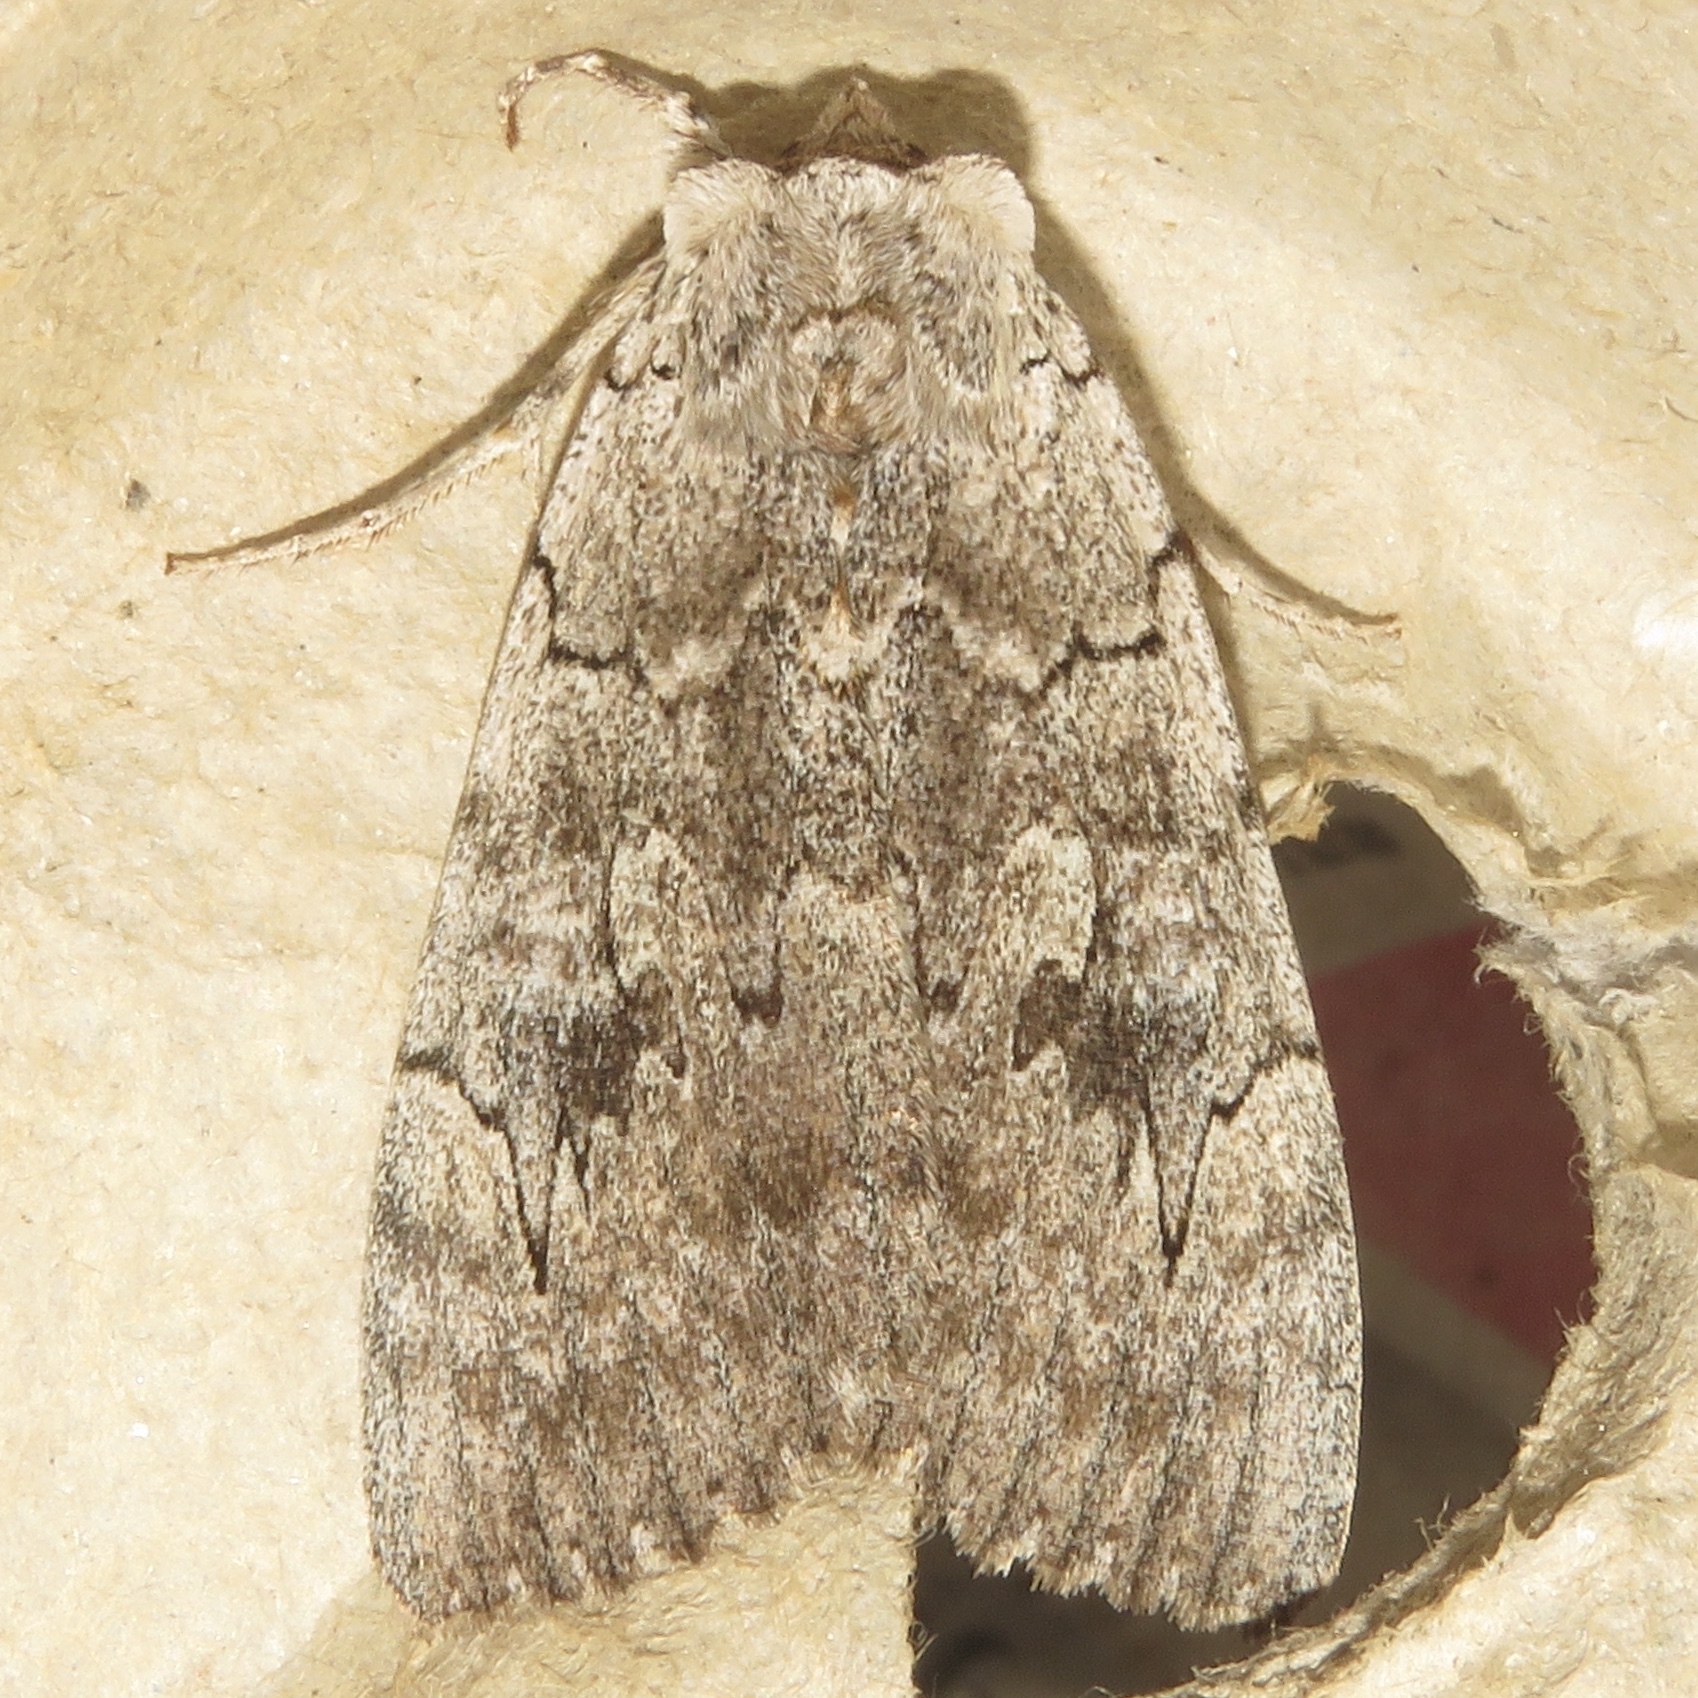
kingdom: Animalia
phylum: Arthropoda
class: Insecta
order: Lepidoptera
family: Erebidae
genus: Catocala
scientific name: Catocala concumbens
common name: Pink underwing
